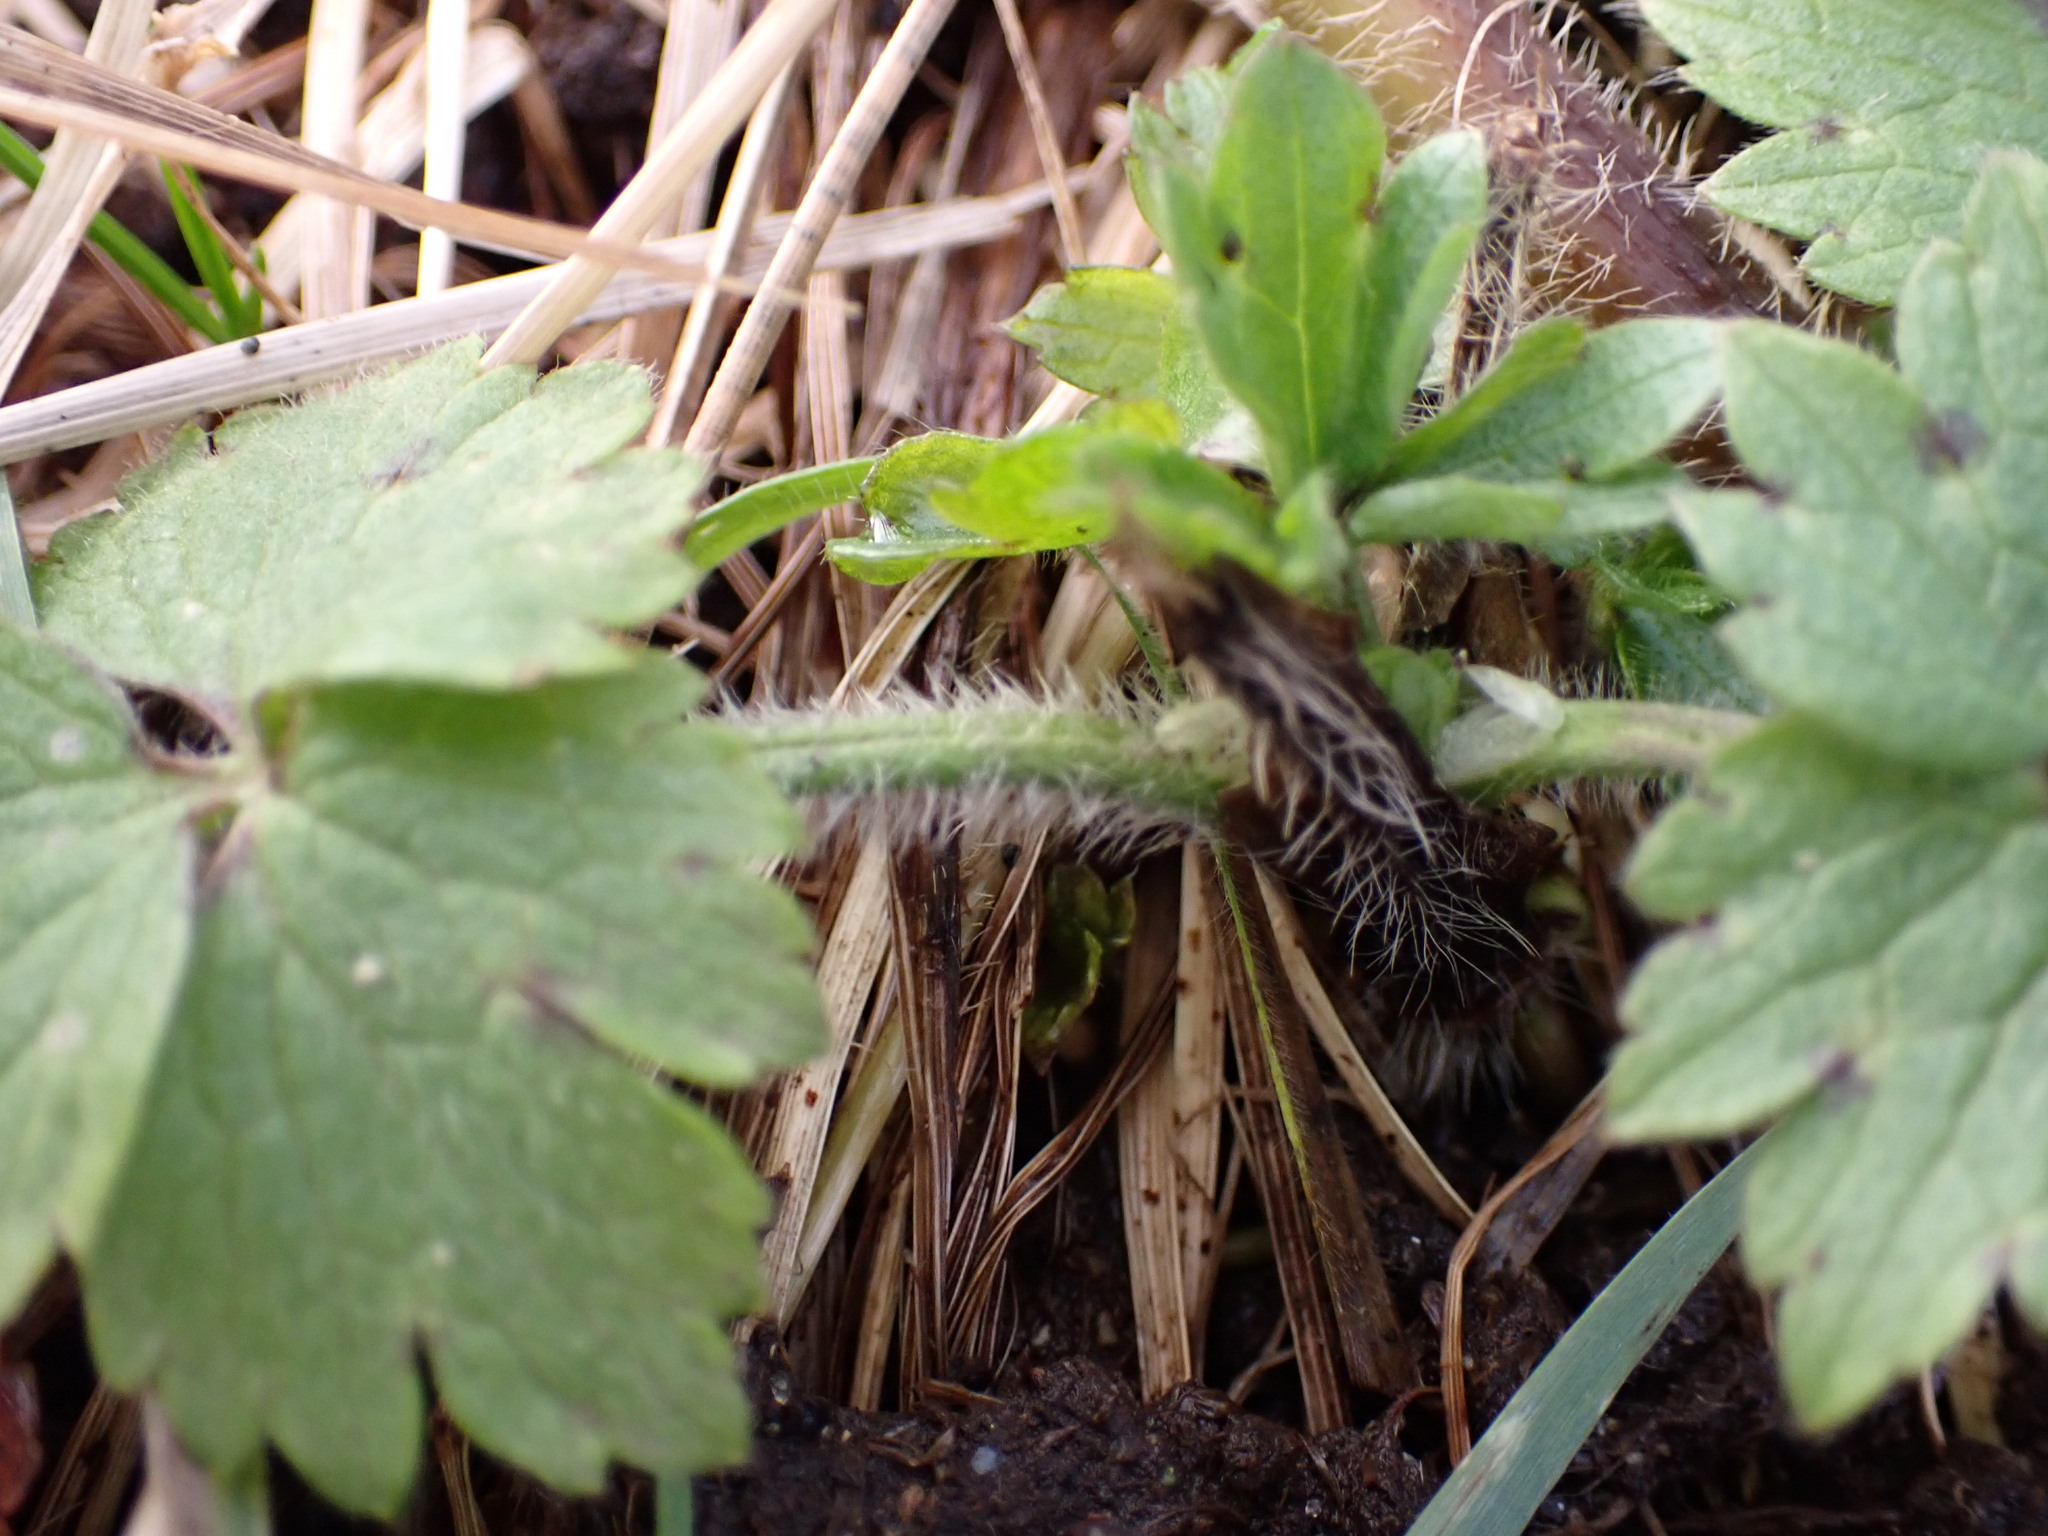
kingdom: Plantae
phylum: Tracheophyta
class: Magnoliopsida
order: Ranunculales
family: Ranunculaceae
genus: Ranunculus
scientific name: Ranunculus repens
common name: Creeping buttercup
